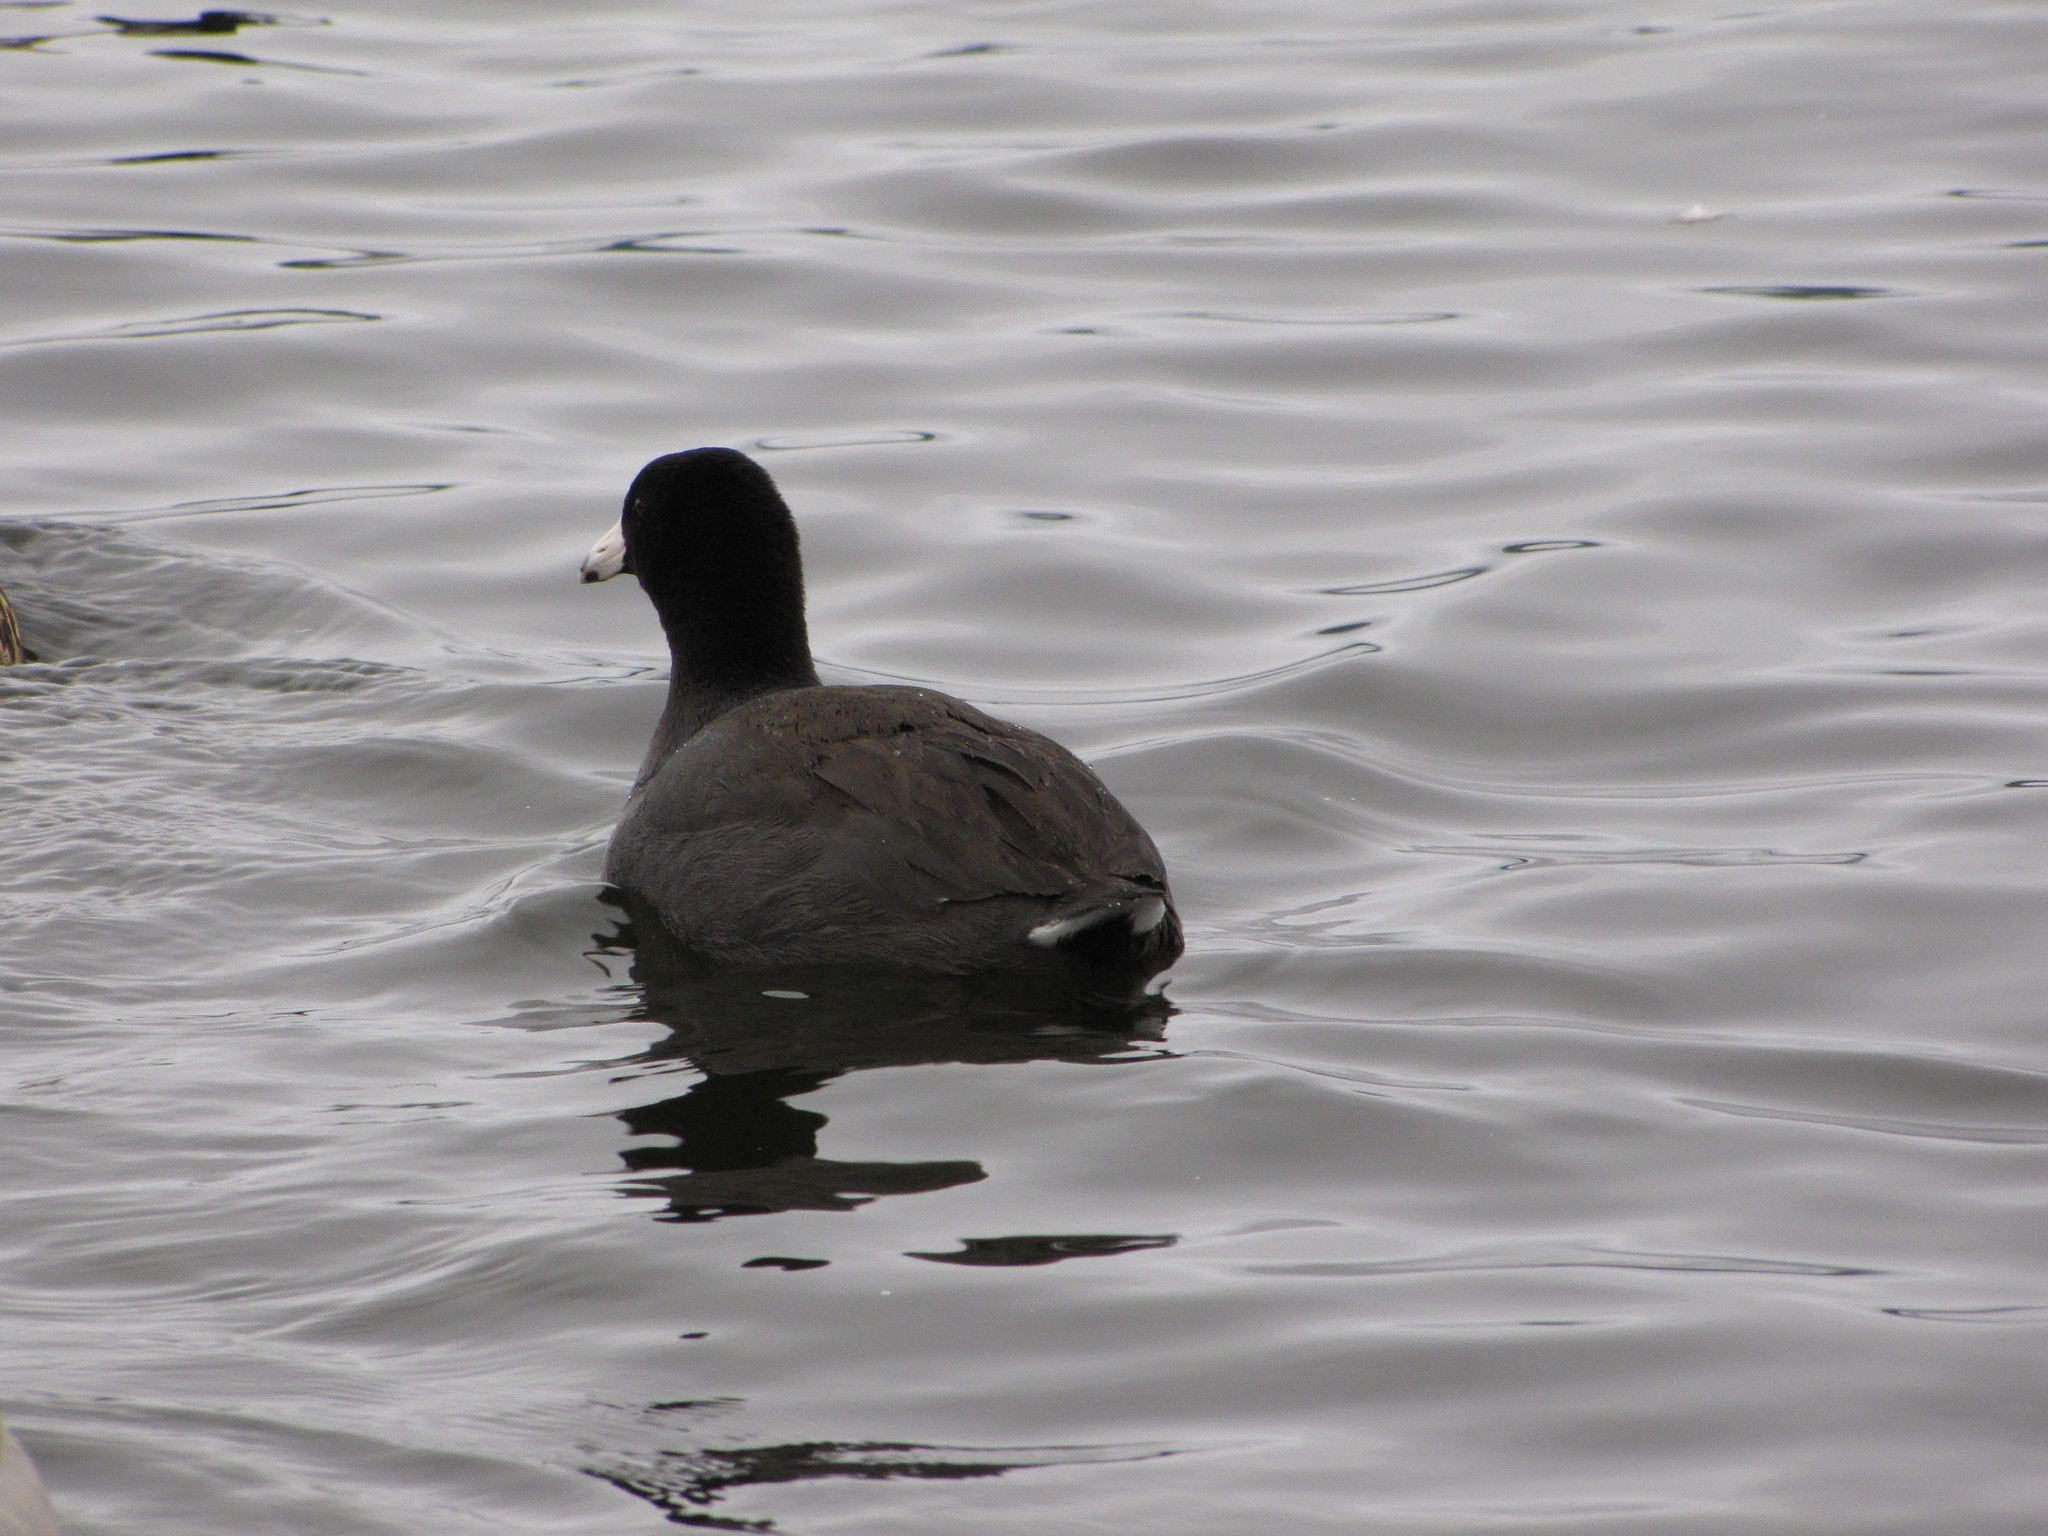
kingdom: Animalia
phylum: Chordata
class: Aves
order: Gruiformes
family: Rallidae
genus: Fulica
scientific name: Fulica americana
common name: American coot
